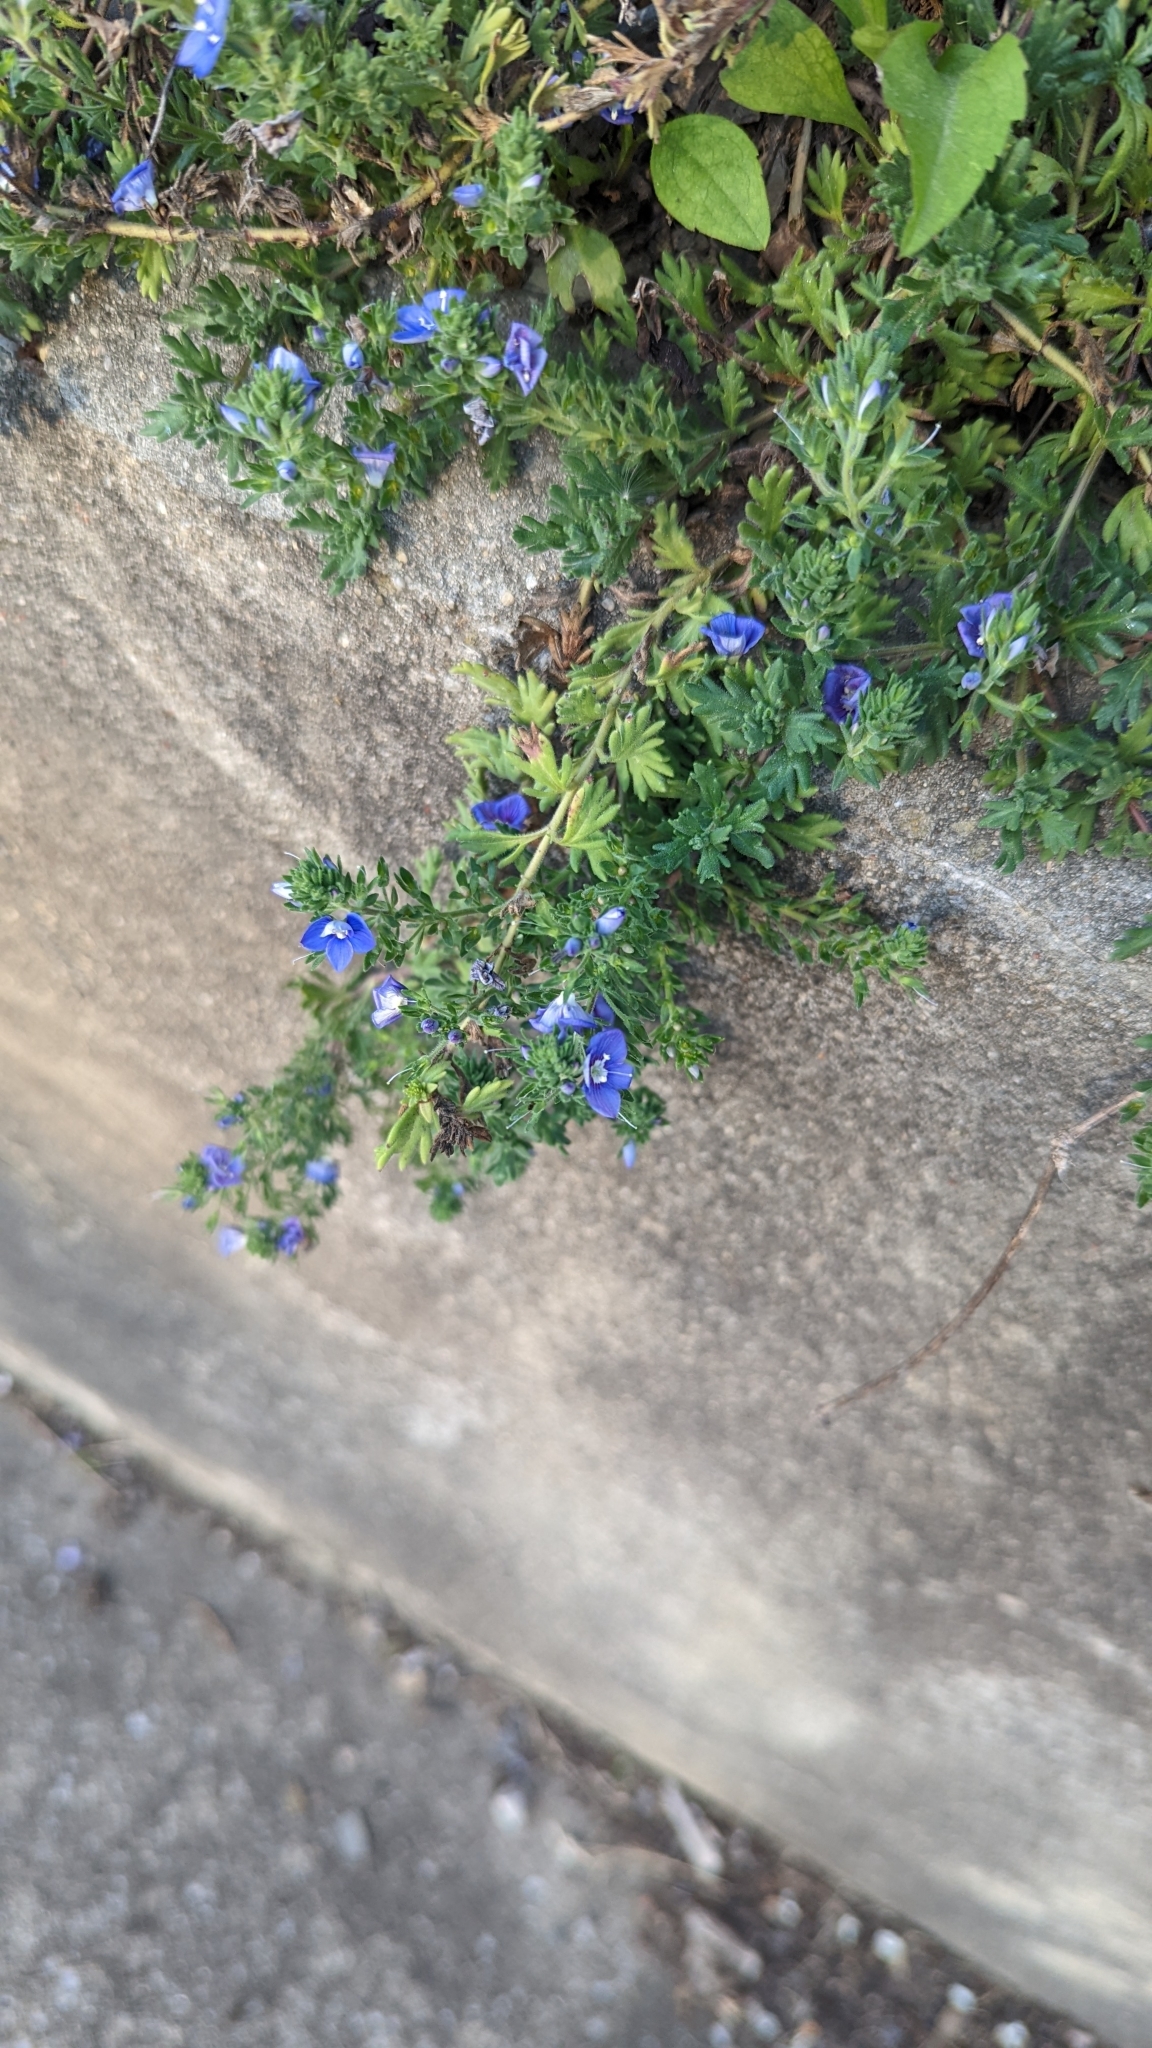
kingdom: Plantae
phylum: Tracheophyta
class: Magnoliopsida
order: Lamiales
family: Plantaginaceae
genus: Veronica
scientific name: Veronica macrostachya
